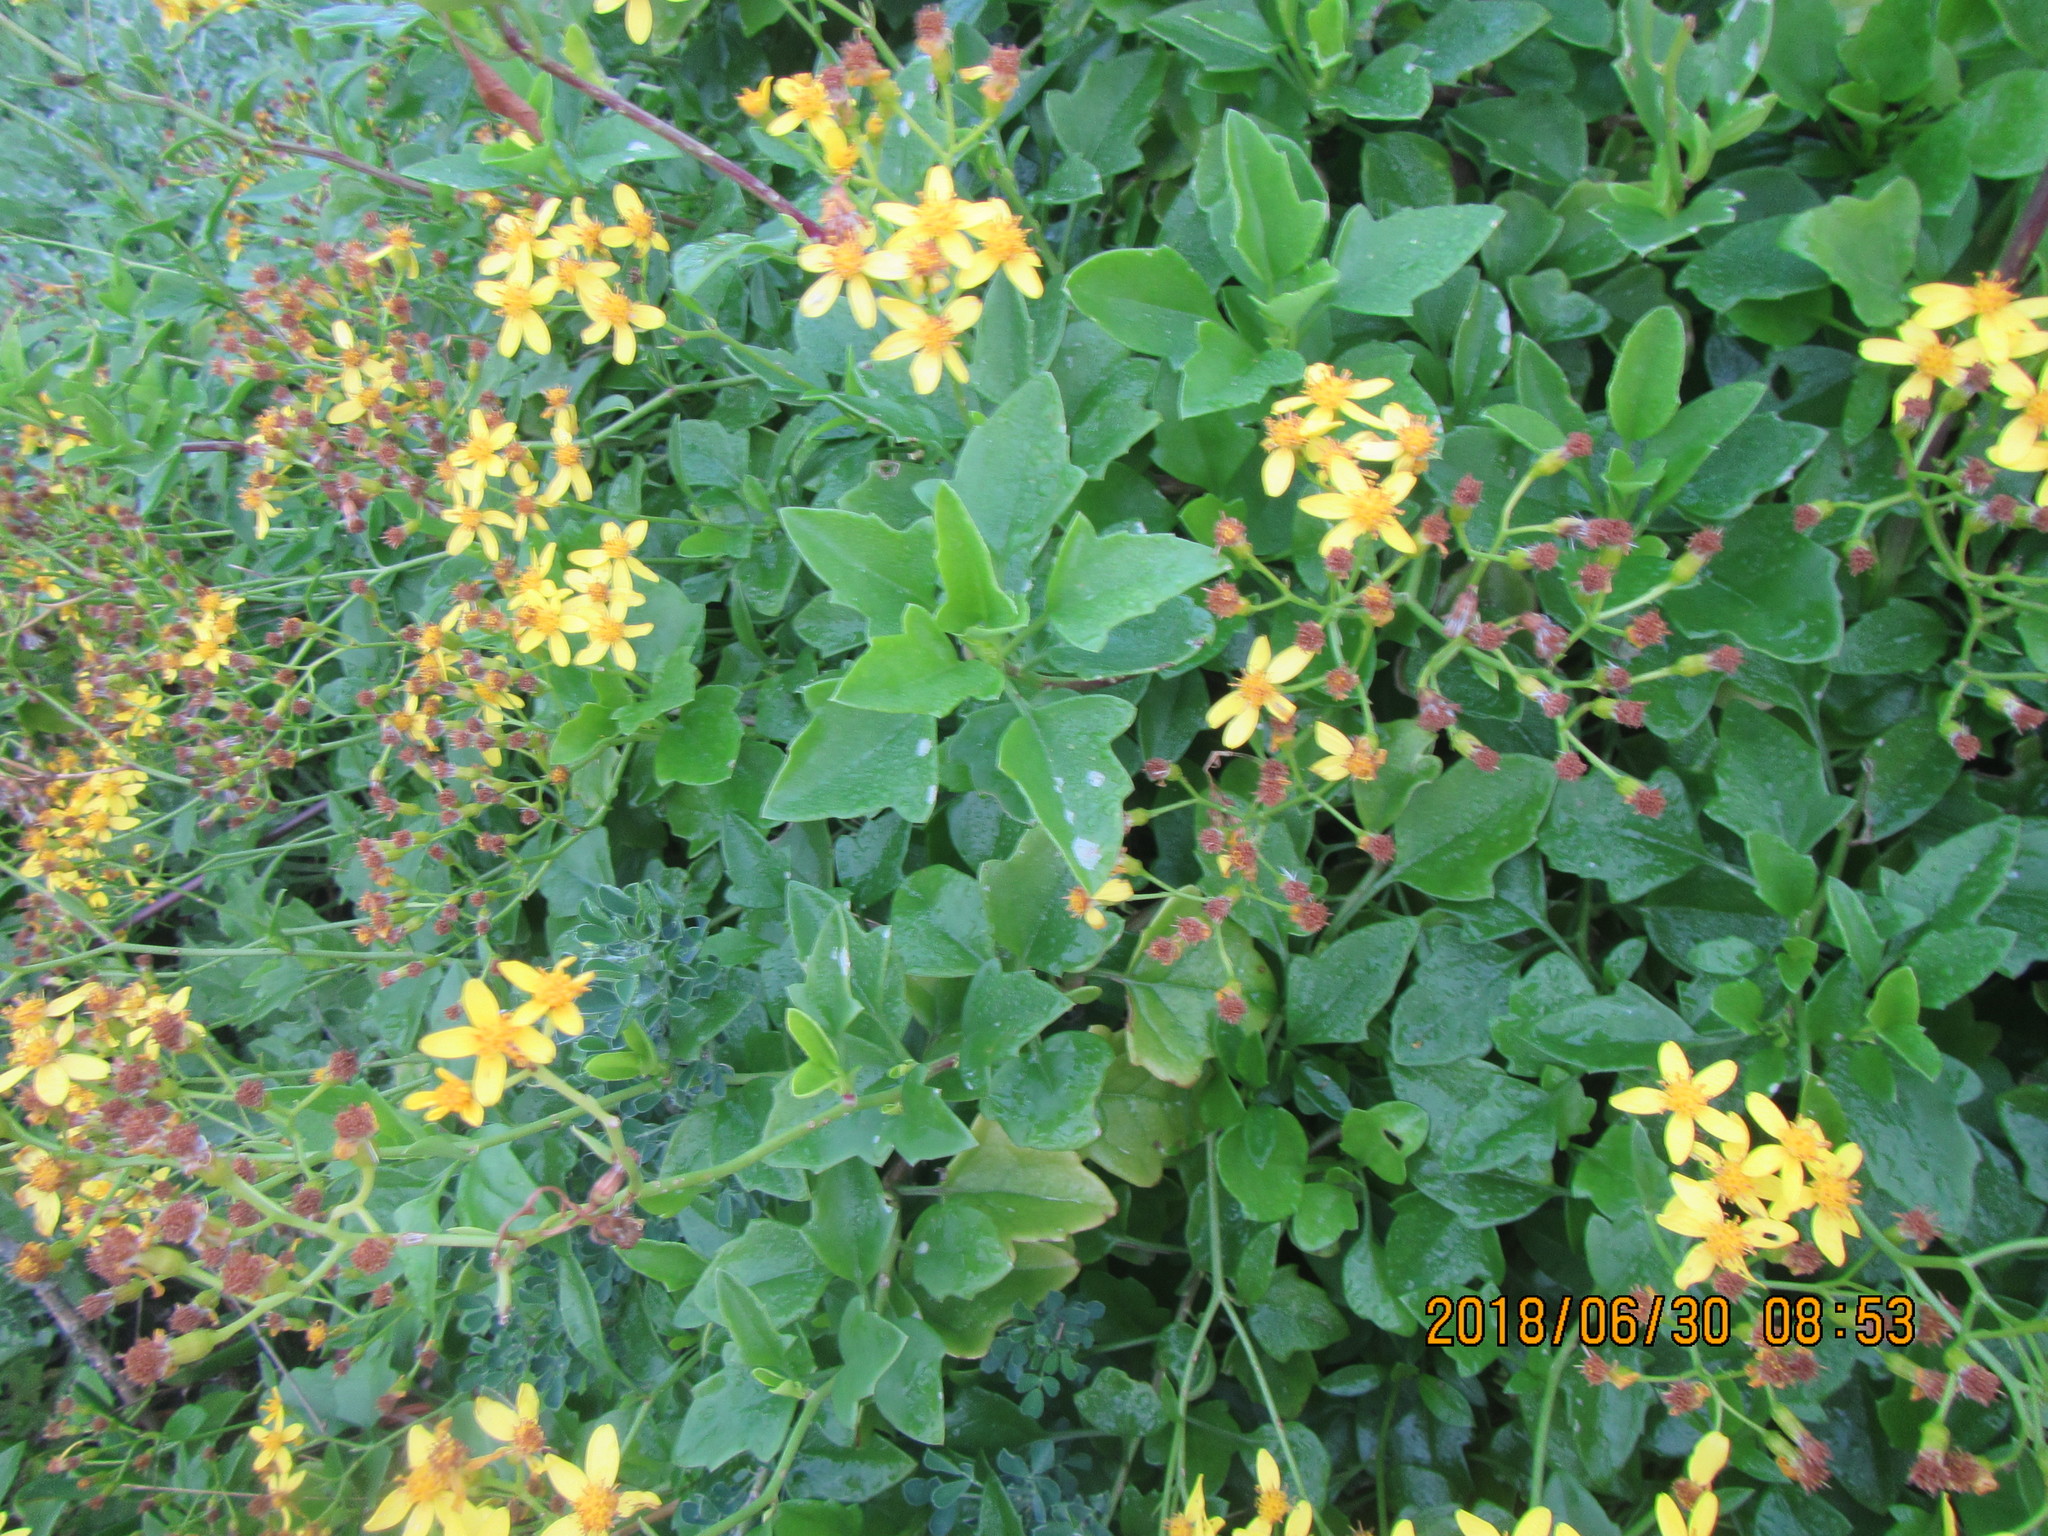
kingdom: Plantae
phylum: Tracheophyta
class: Magnoliopsida
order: Asterales
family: Asteraceae
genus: Senecio
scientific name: Senecio angulatus
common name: Climbing groundsel
